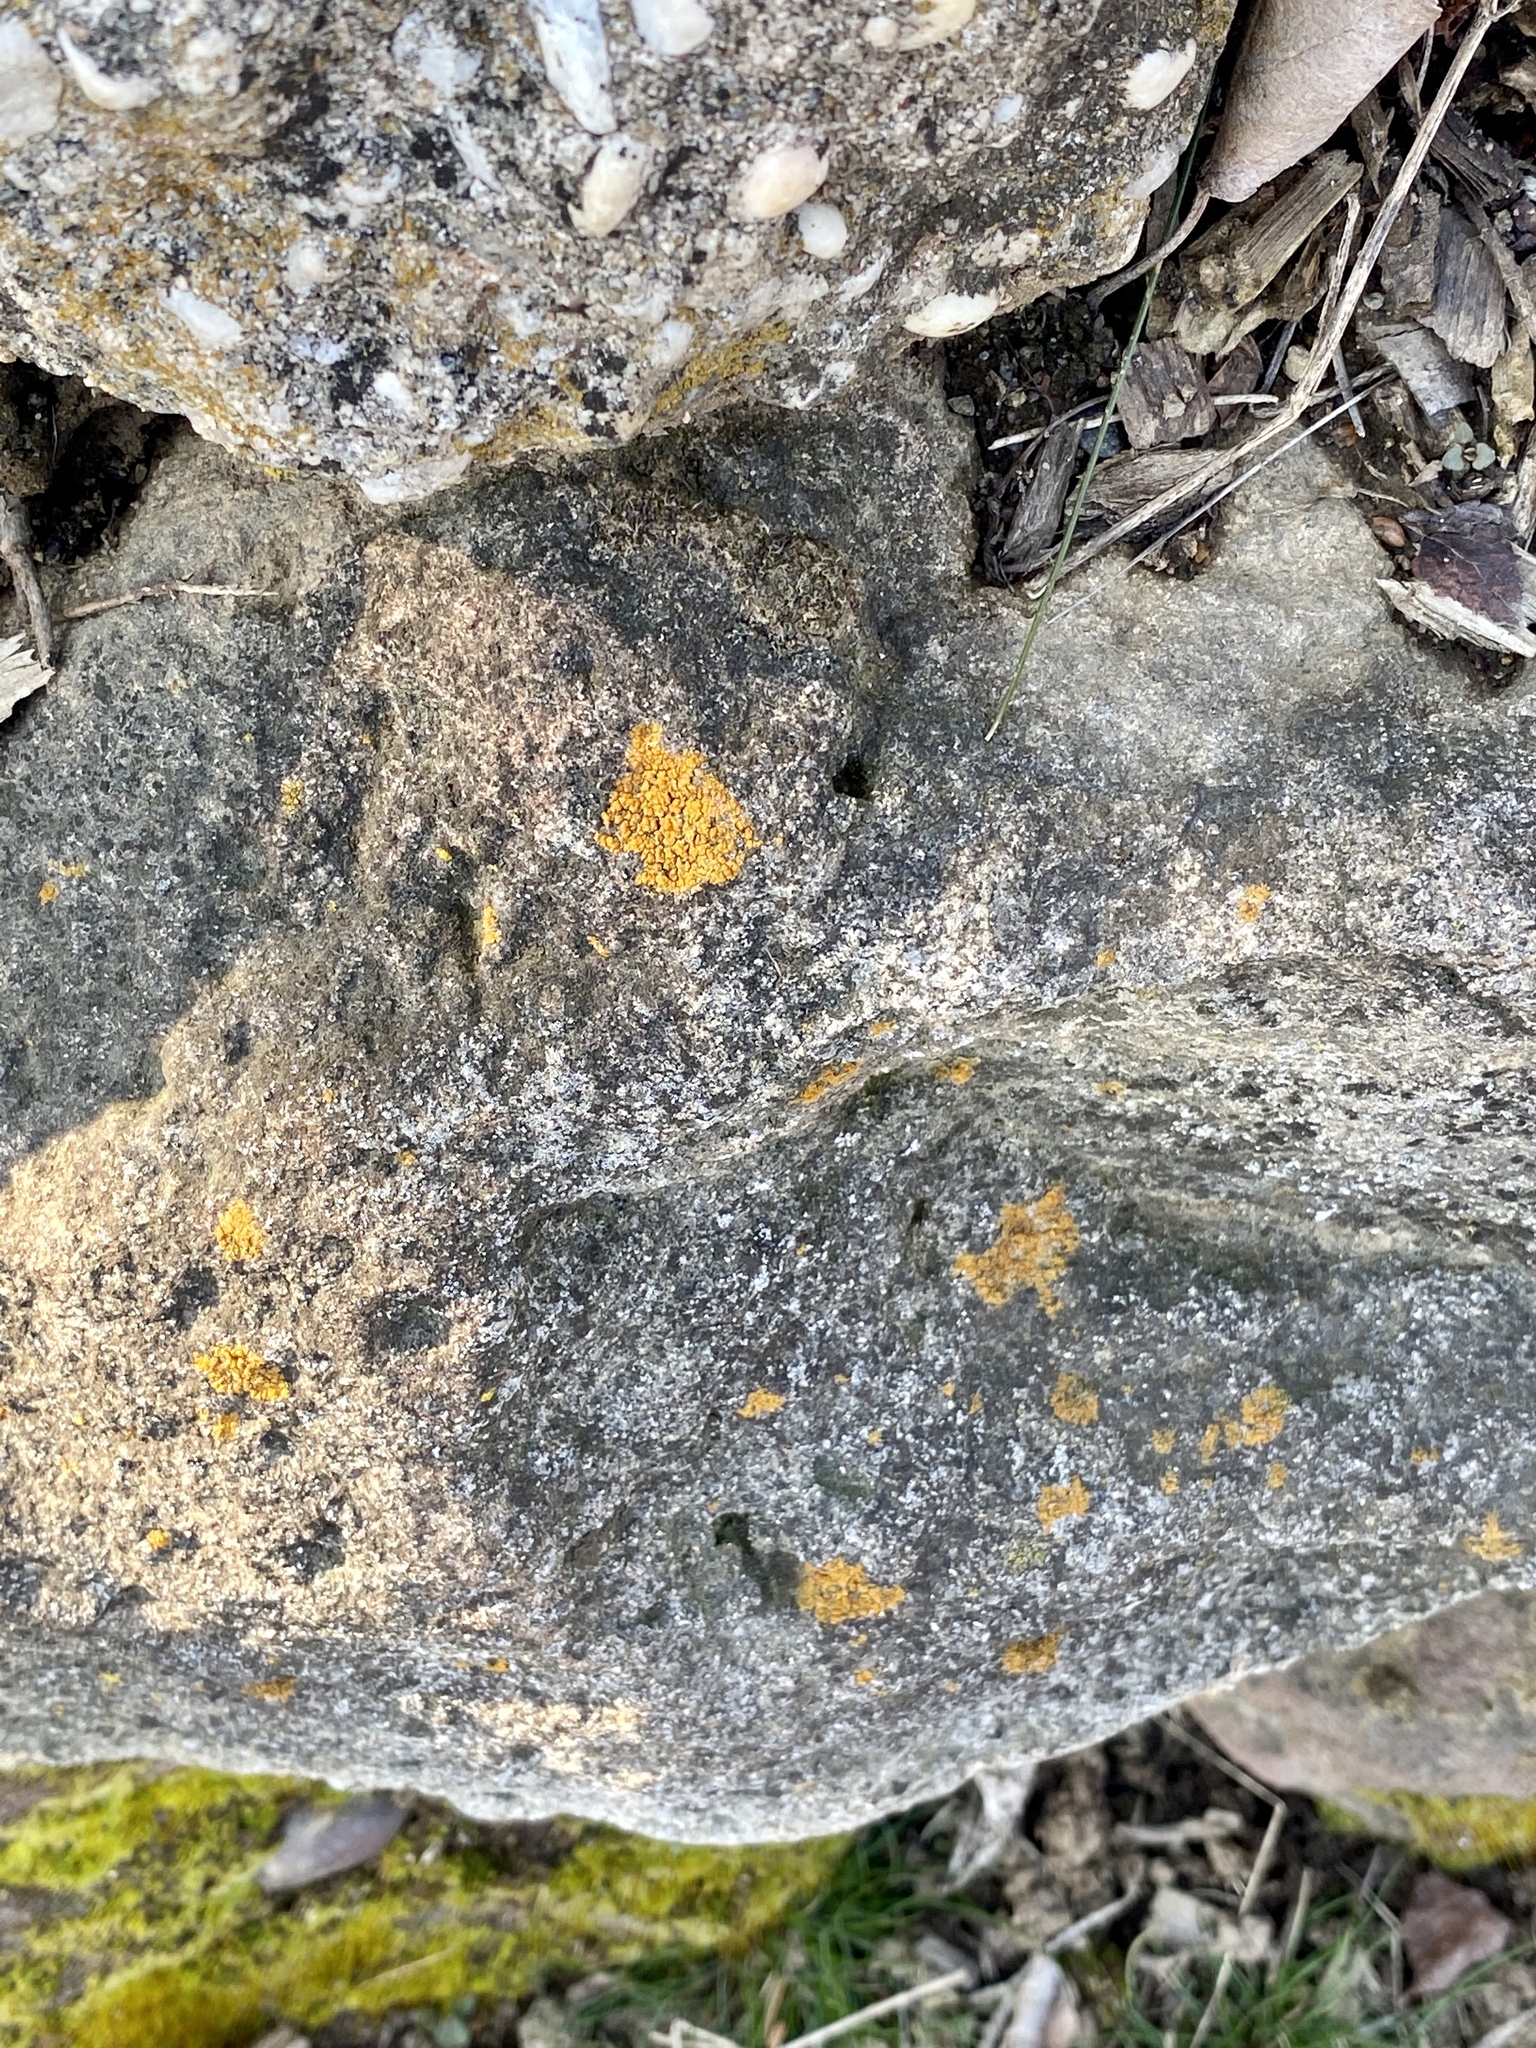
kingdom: Fungi
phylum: Ascomycota
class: Lecanoromycetes
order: Teloschistales
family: Teloschistaceae
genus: Xanthocarpia
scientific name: Xanthocarpia feracissima
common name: Sidewalk firedot
